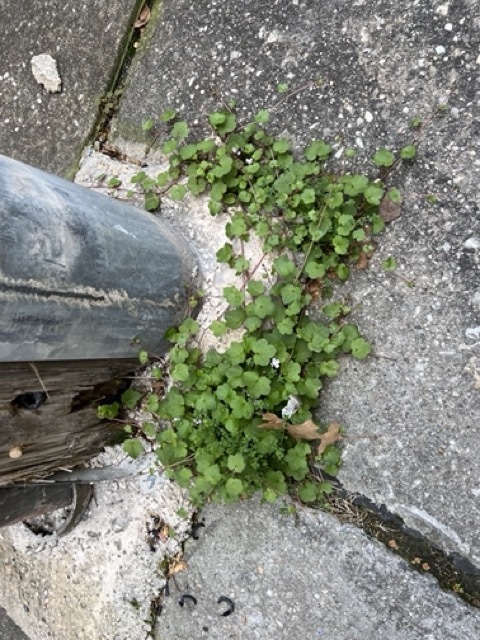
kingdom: Plantae
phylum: Tracheophyta
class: Magnoliopsida
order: Lamiales
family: Plantaginaceae
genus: Cymbalaria
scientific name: Cymbalaria muralis
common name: Ivy-leaved toadflax
